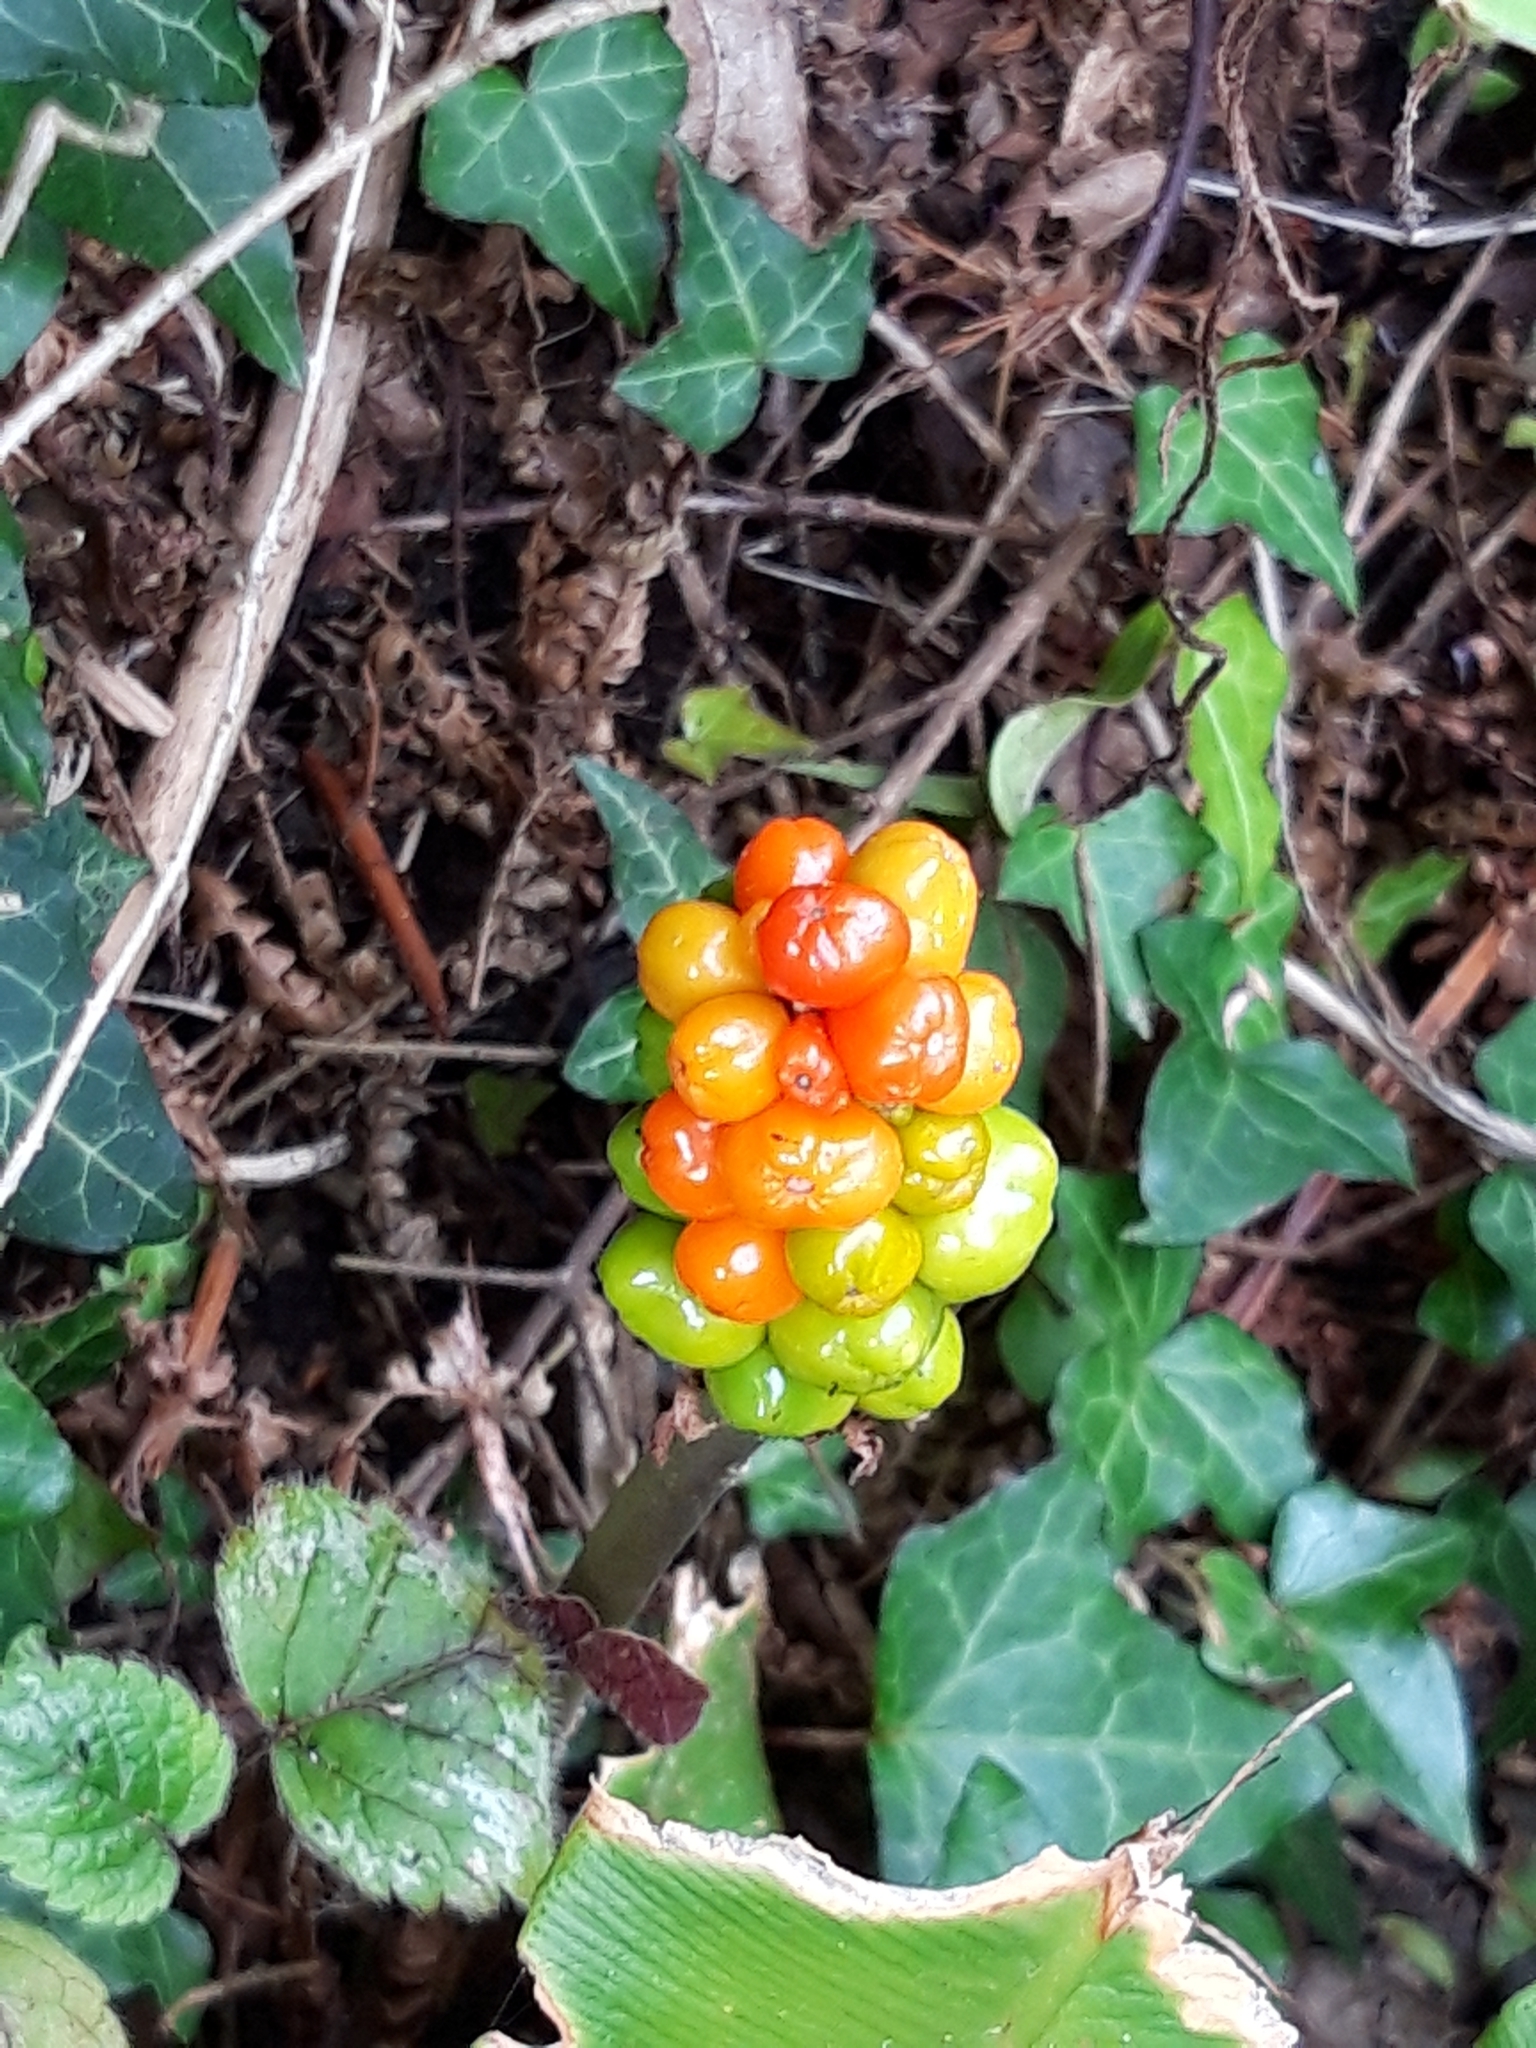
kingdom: Plantae
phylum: Tracheophyta
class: Liliopsida
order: Alismatales
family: Araceae
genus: Arum
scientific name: Arum maculatum
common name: Lords-and-ladies
